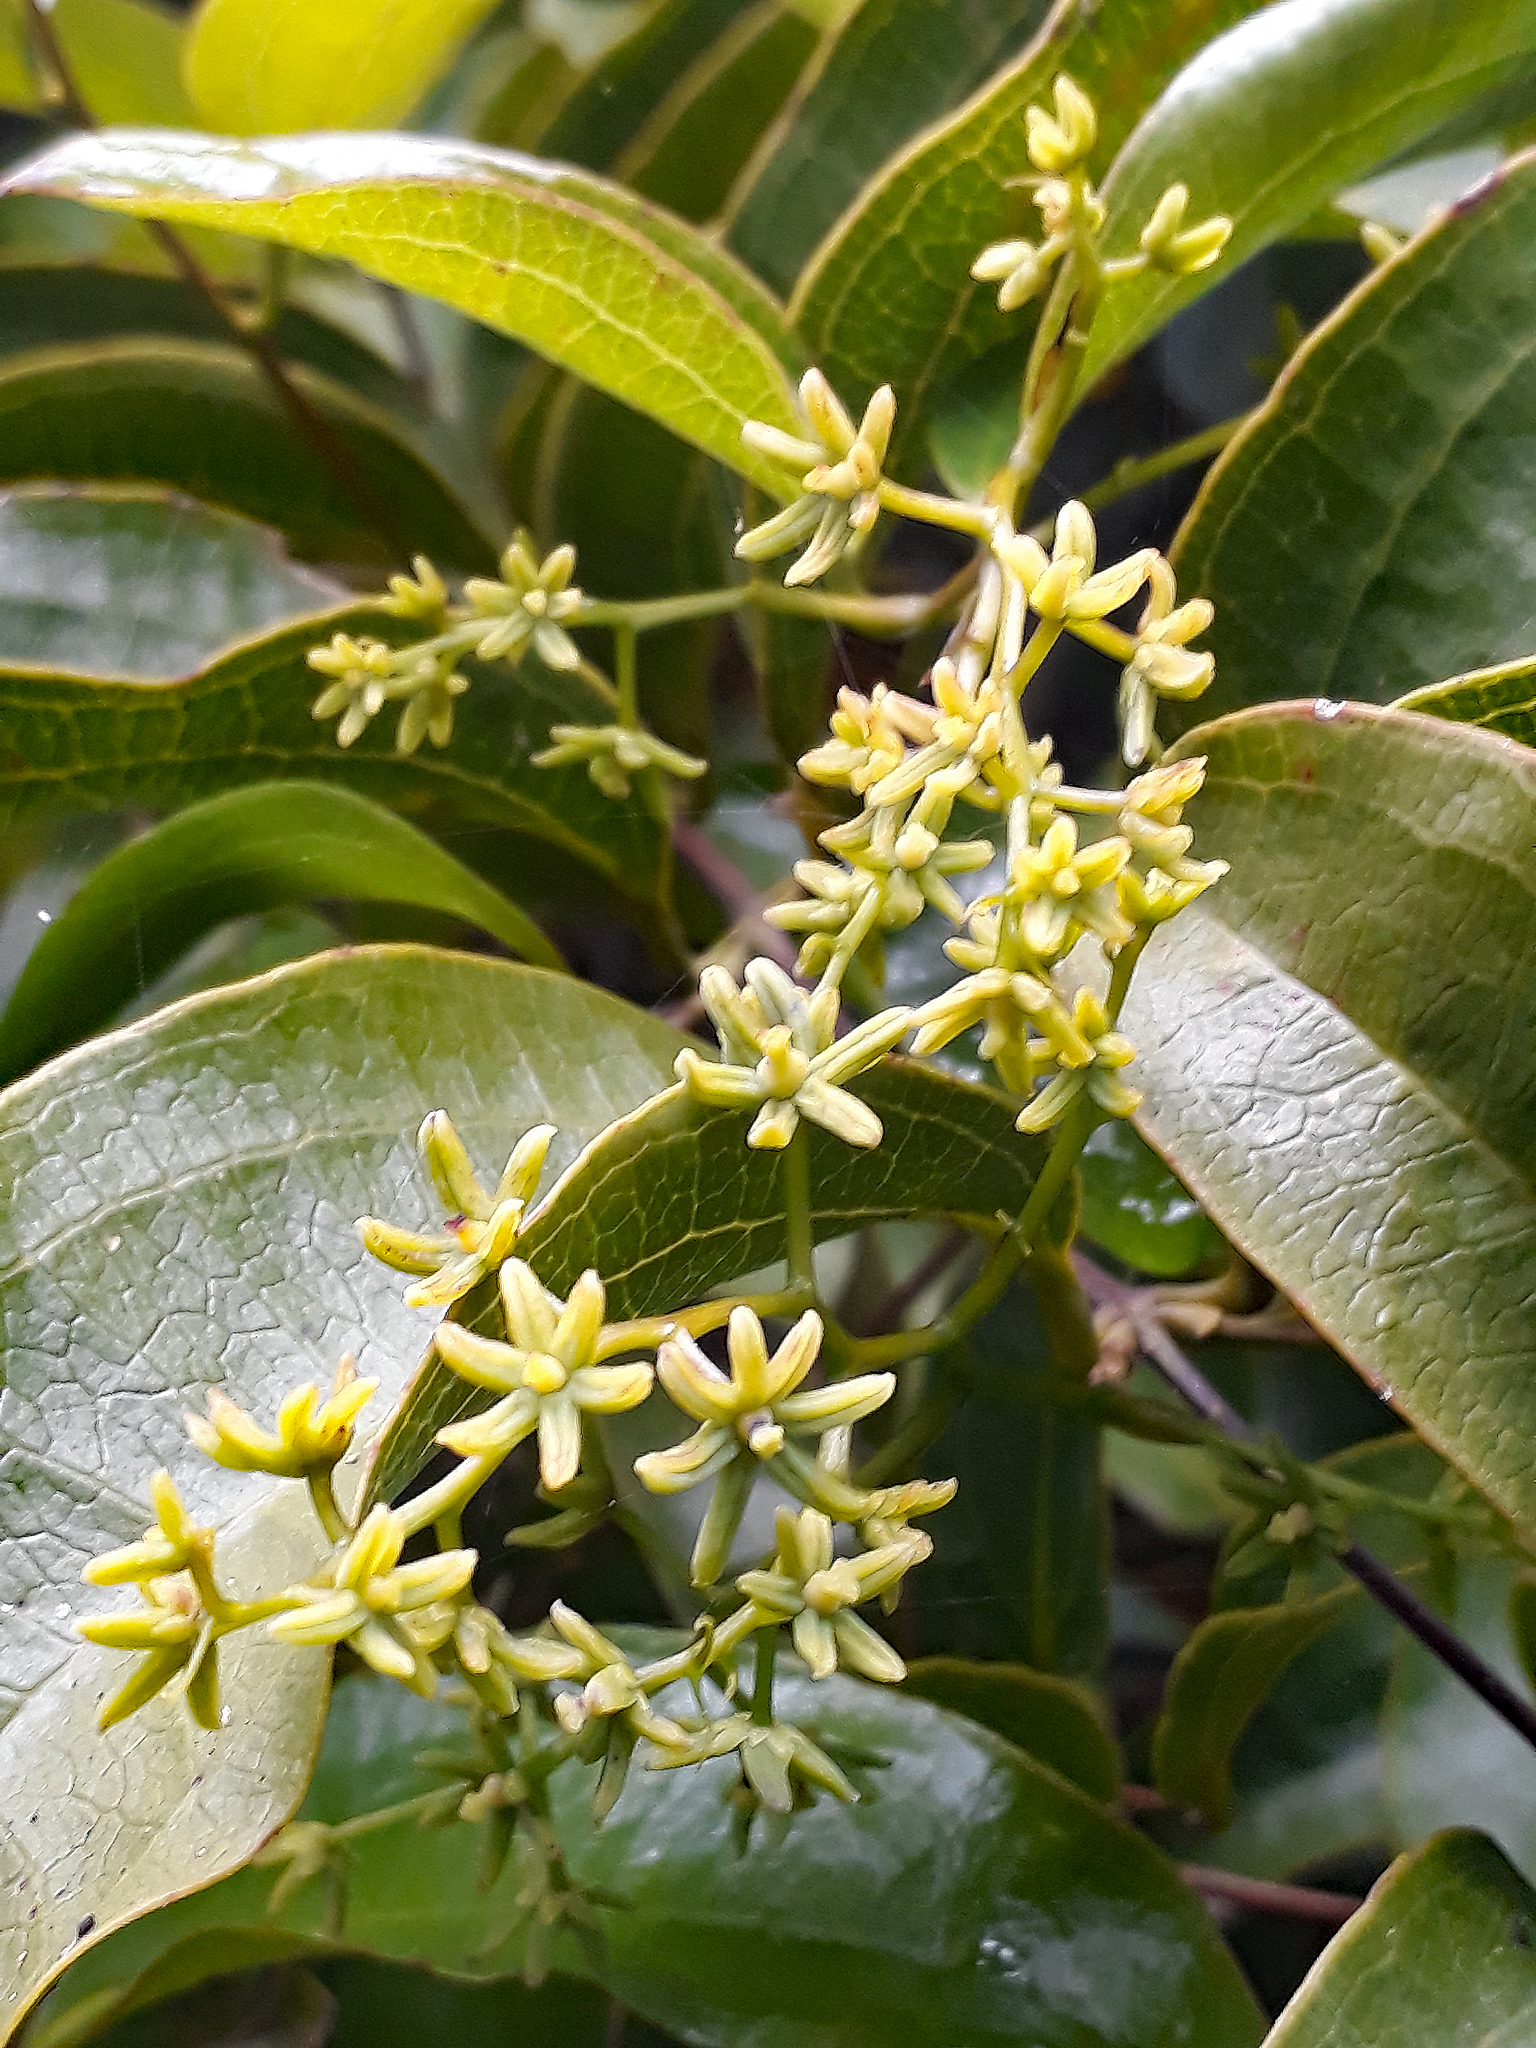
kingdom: Plantae
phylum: Tracheophyta
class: Liliopsida
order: Liliales
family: Ripogonaceae
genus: Ripogonum
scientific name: Ripogonum scandens
